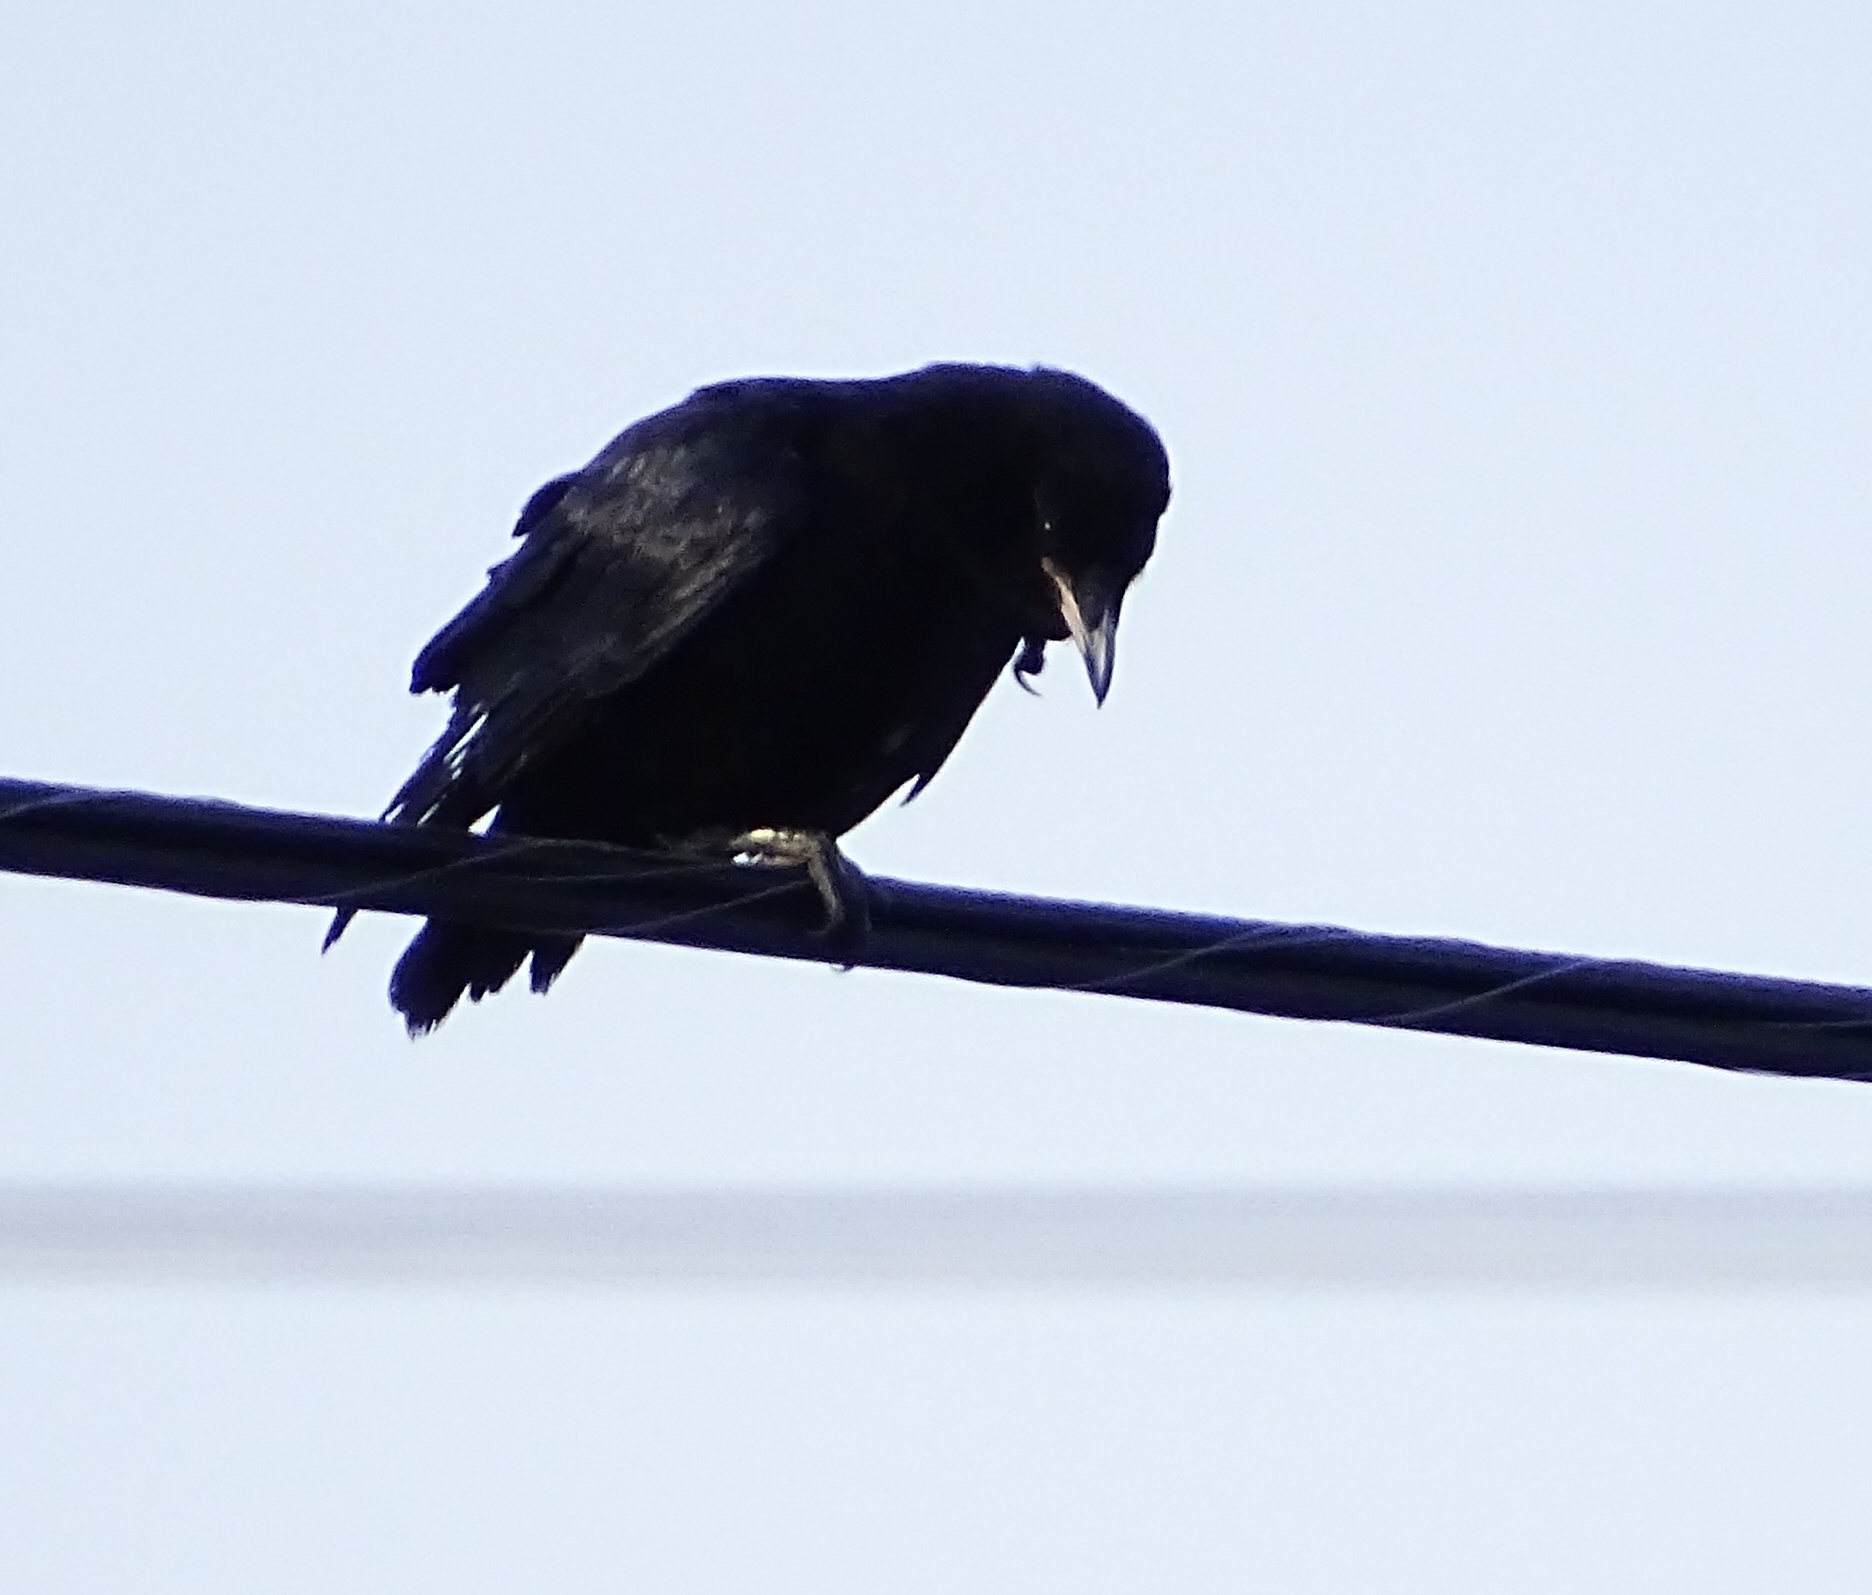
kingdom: Animalia
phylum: Chordata
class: Aves
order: Passeriformes
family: Corvidae
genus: Corvus
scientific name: Corvus brachyrhynchos
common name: American crow
